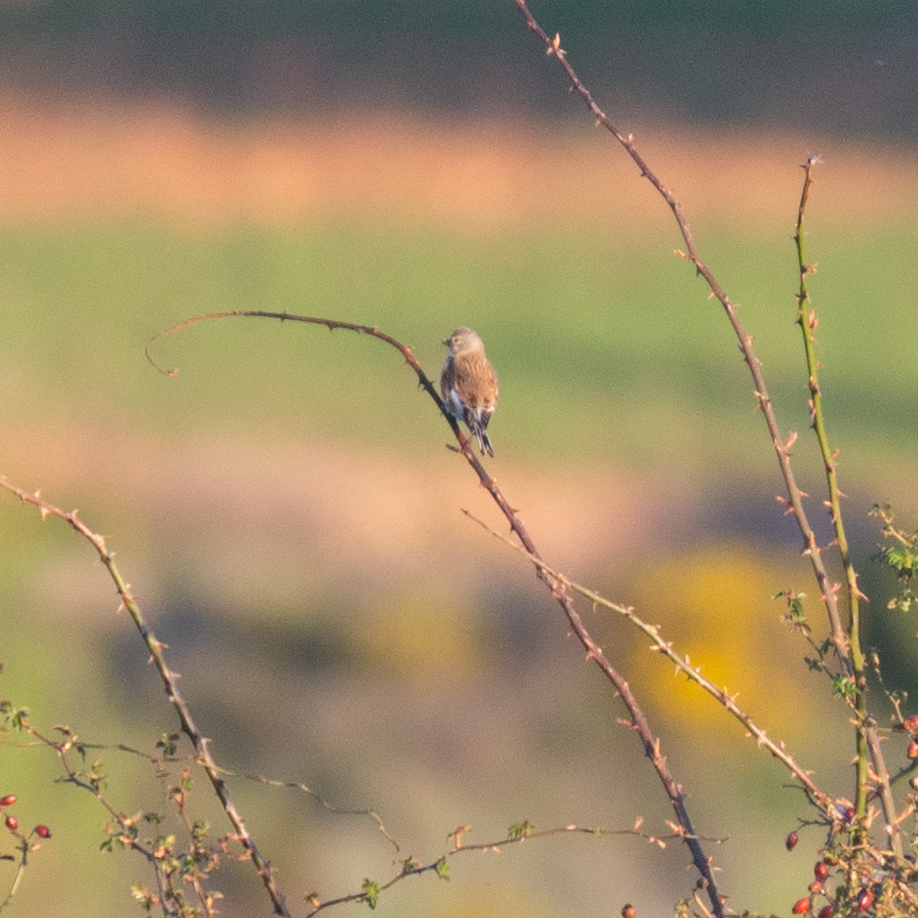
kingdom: Animalia
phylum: Chordata
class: Aves
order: Passeriformes
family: Fringillidae
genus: Linaria
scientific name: Linaria cannabina
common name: Common linnet
